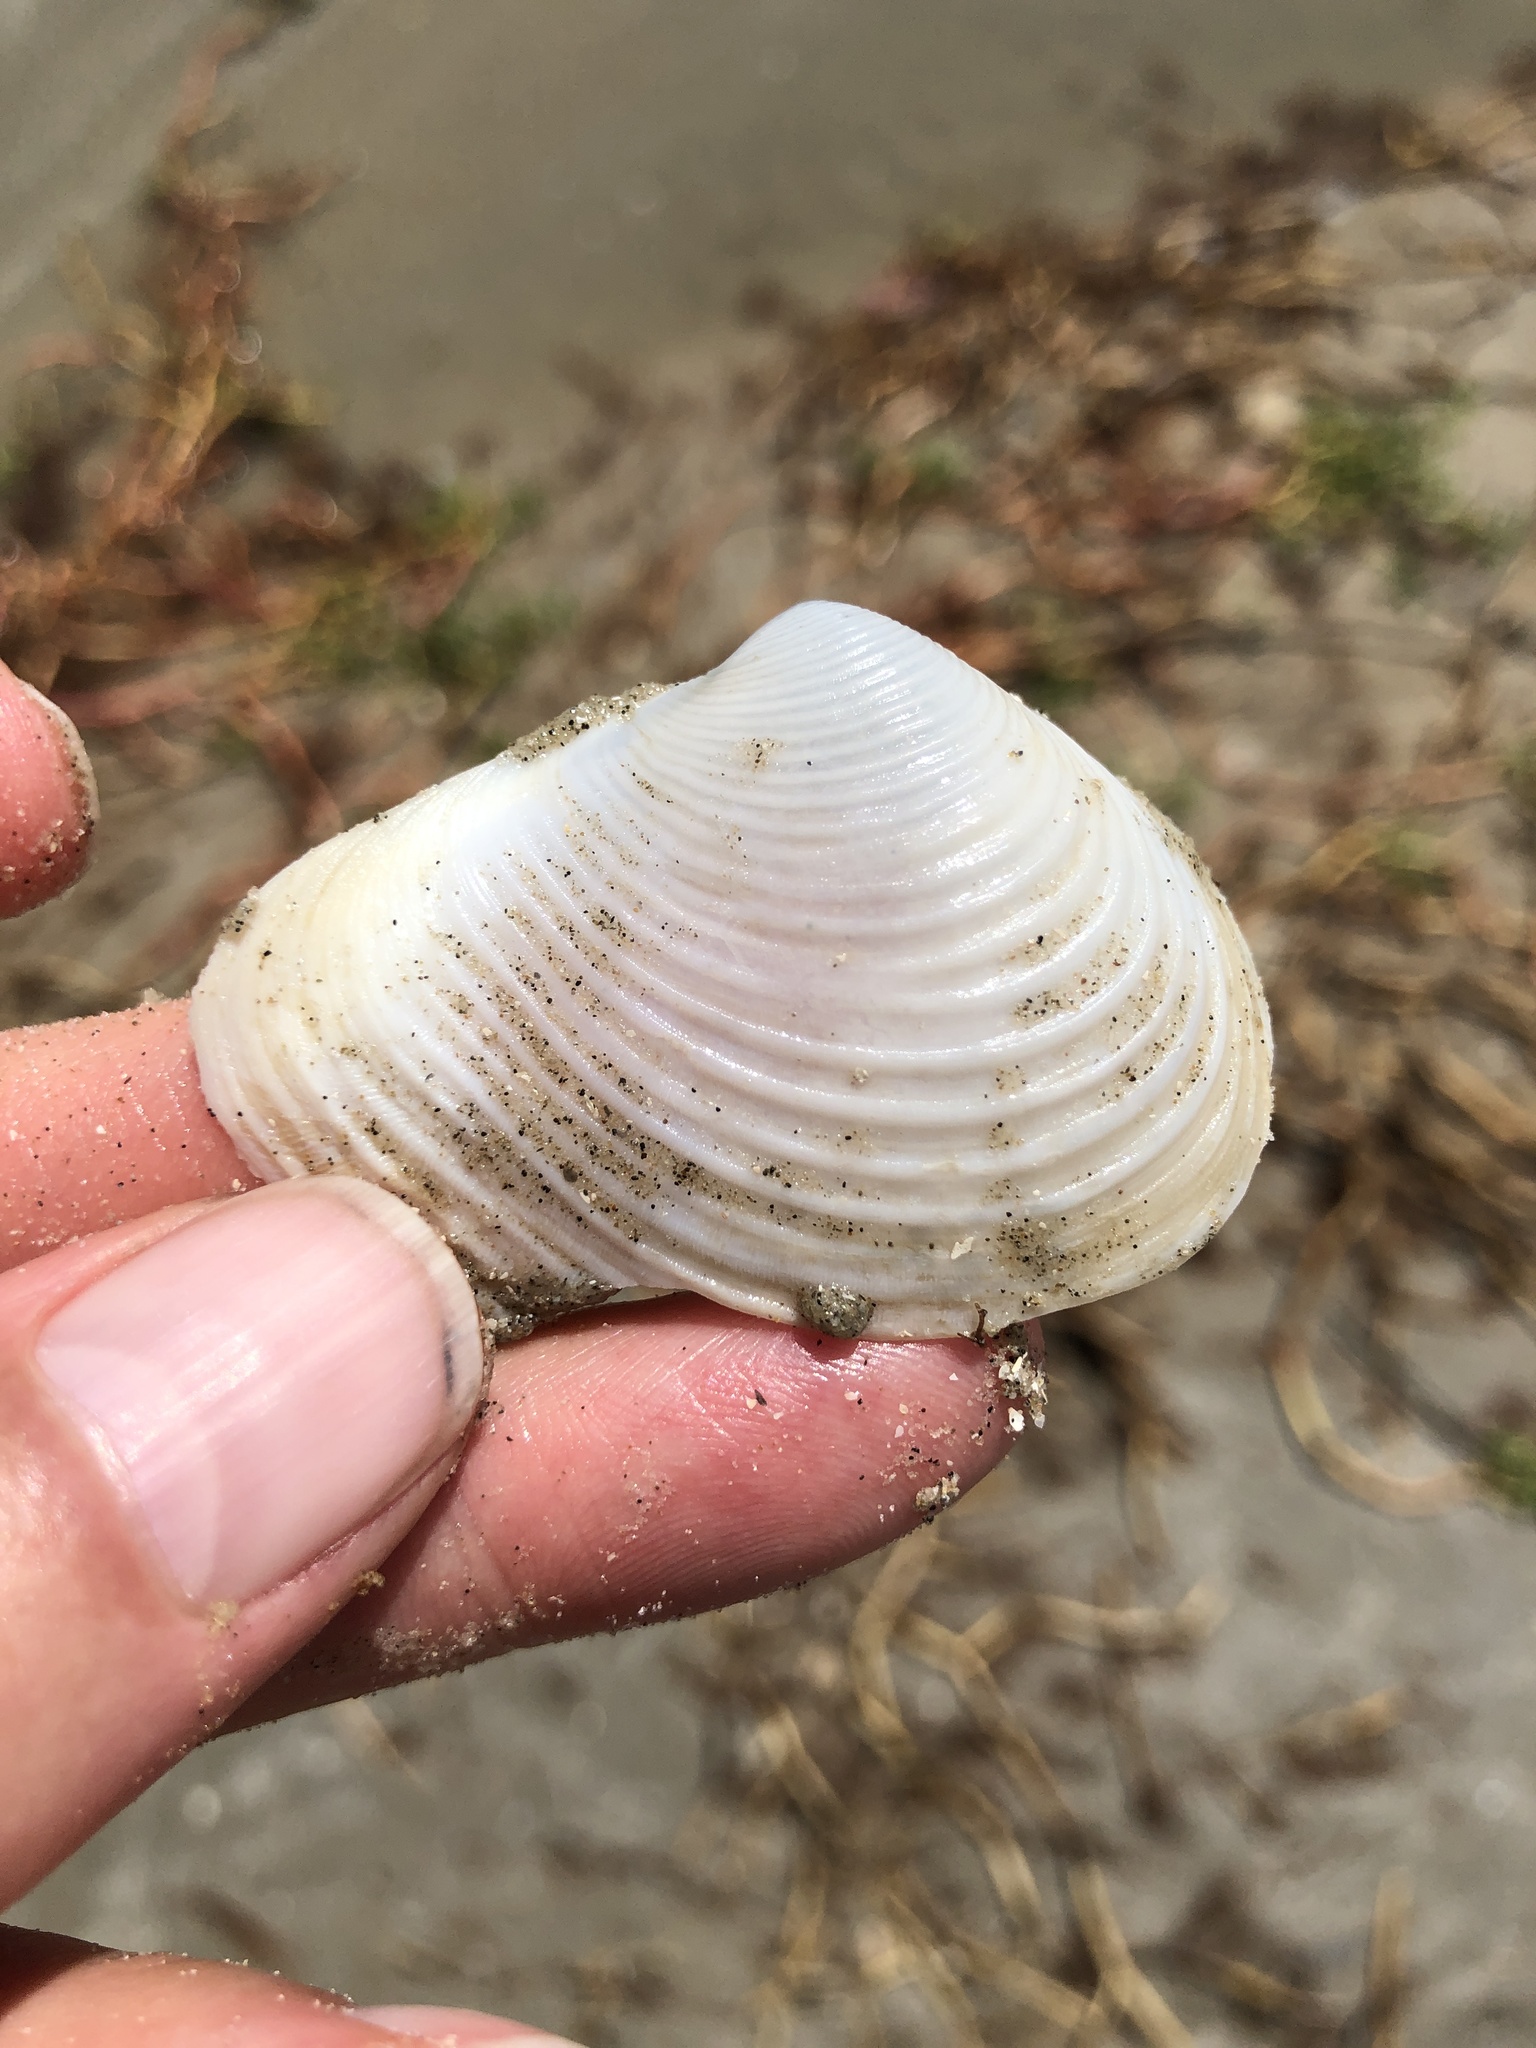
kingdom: Animalia
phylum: Mollusca
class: Bivalvia
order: Venerida
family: Anatinellidae
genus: Raeta
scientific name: Raeta plicatella
